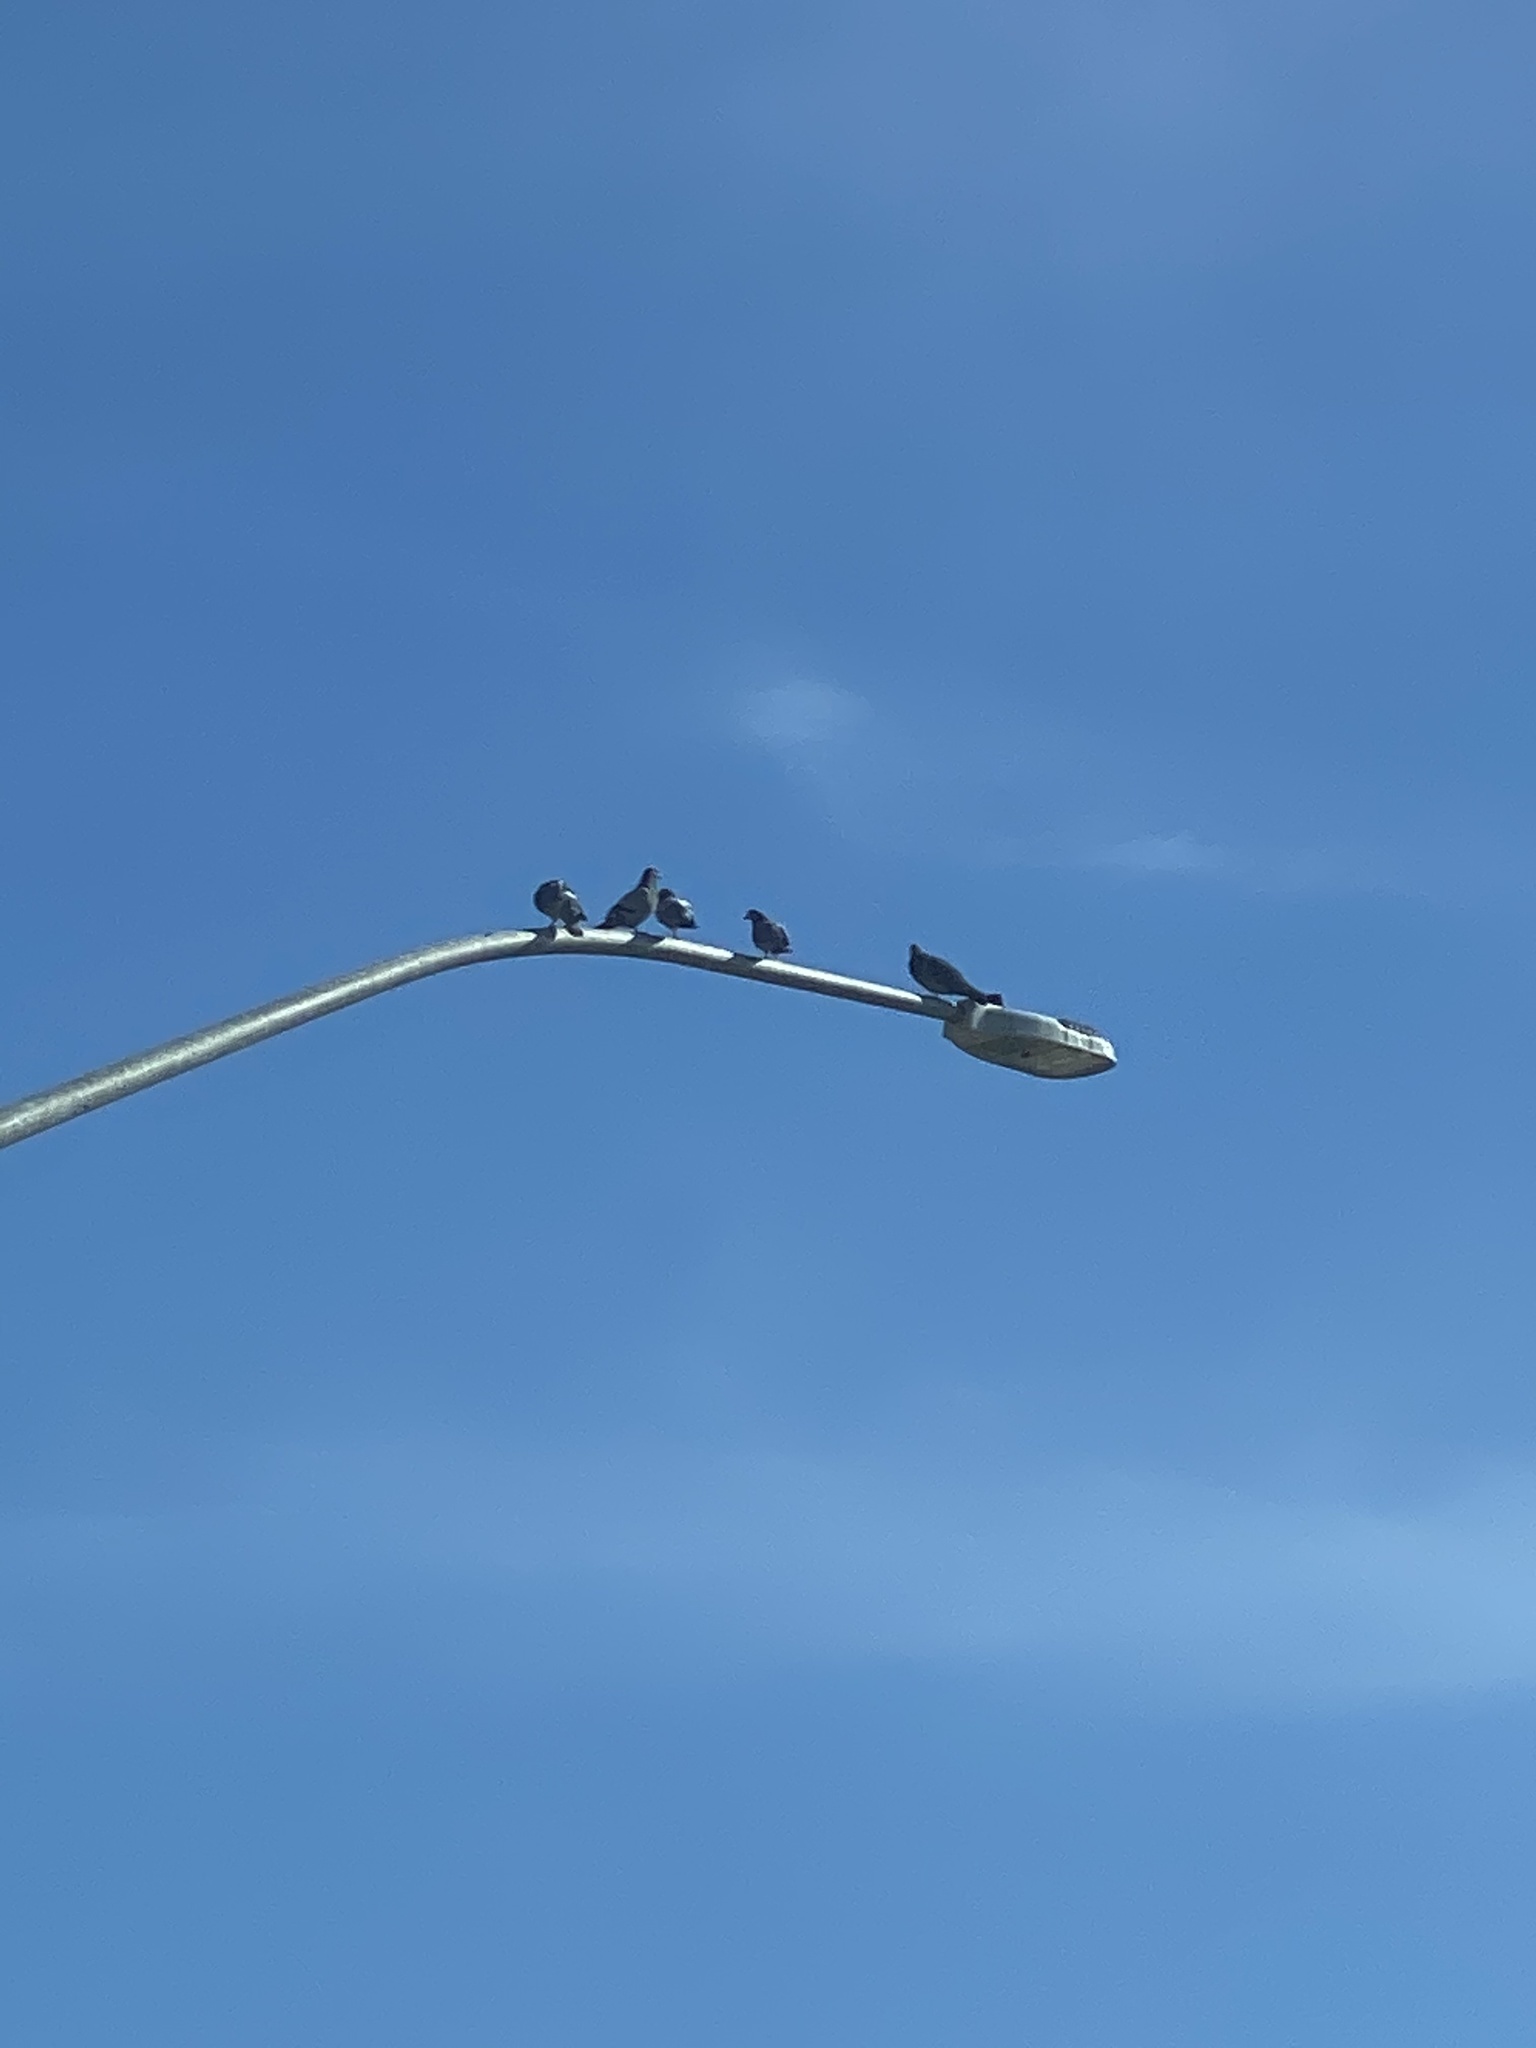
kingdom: Animalia
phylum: Chordata
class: Aves
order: Columbiformes
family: Columbidae
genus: Columba
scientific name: Columba livia
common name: Rock pigeon
